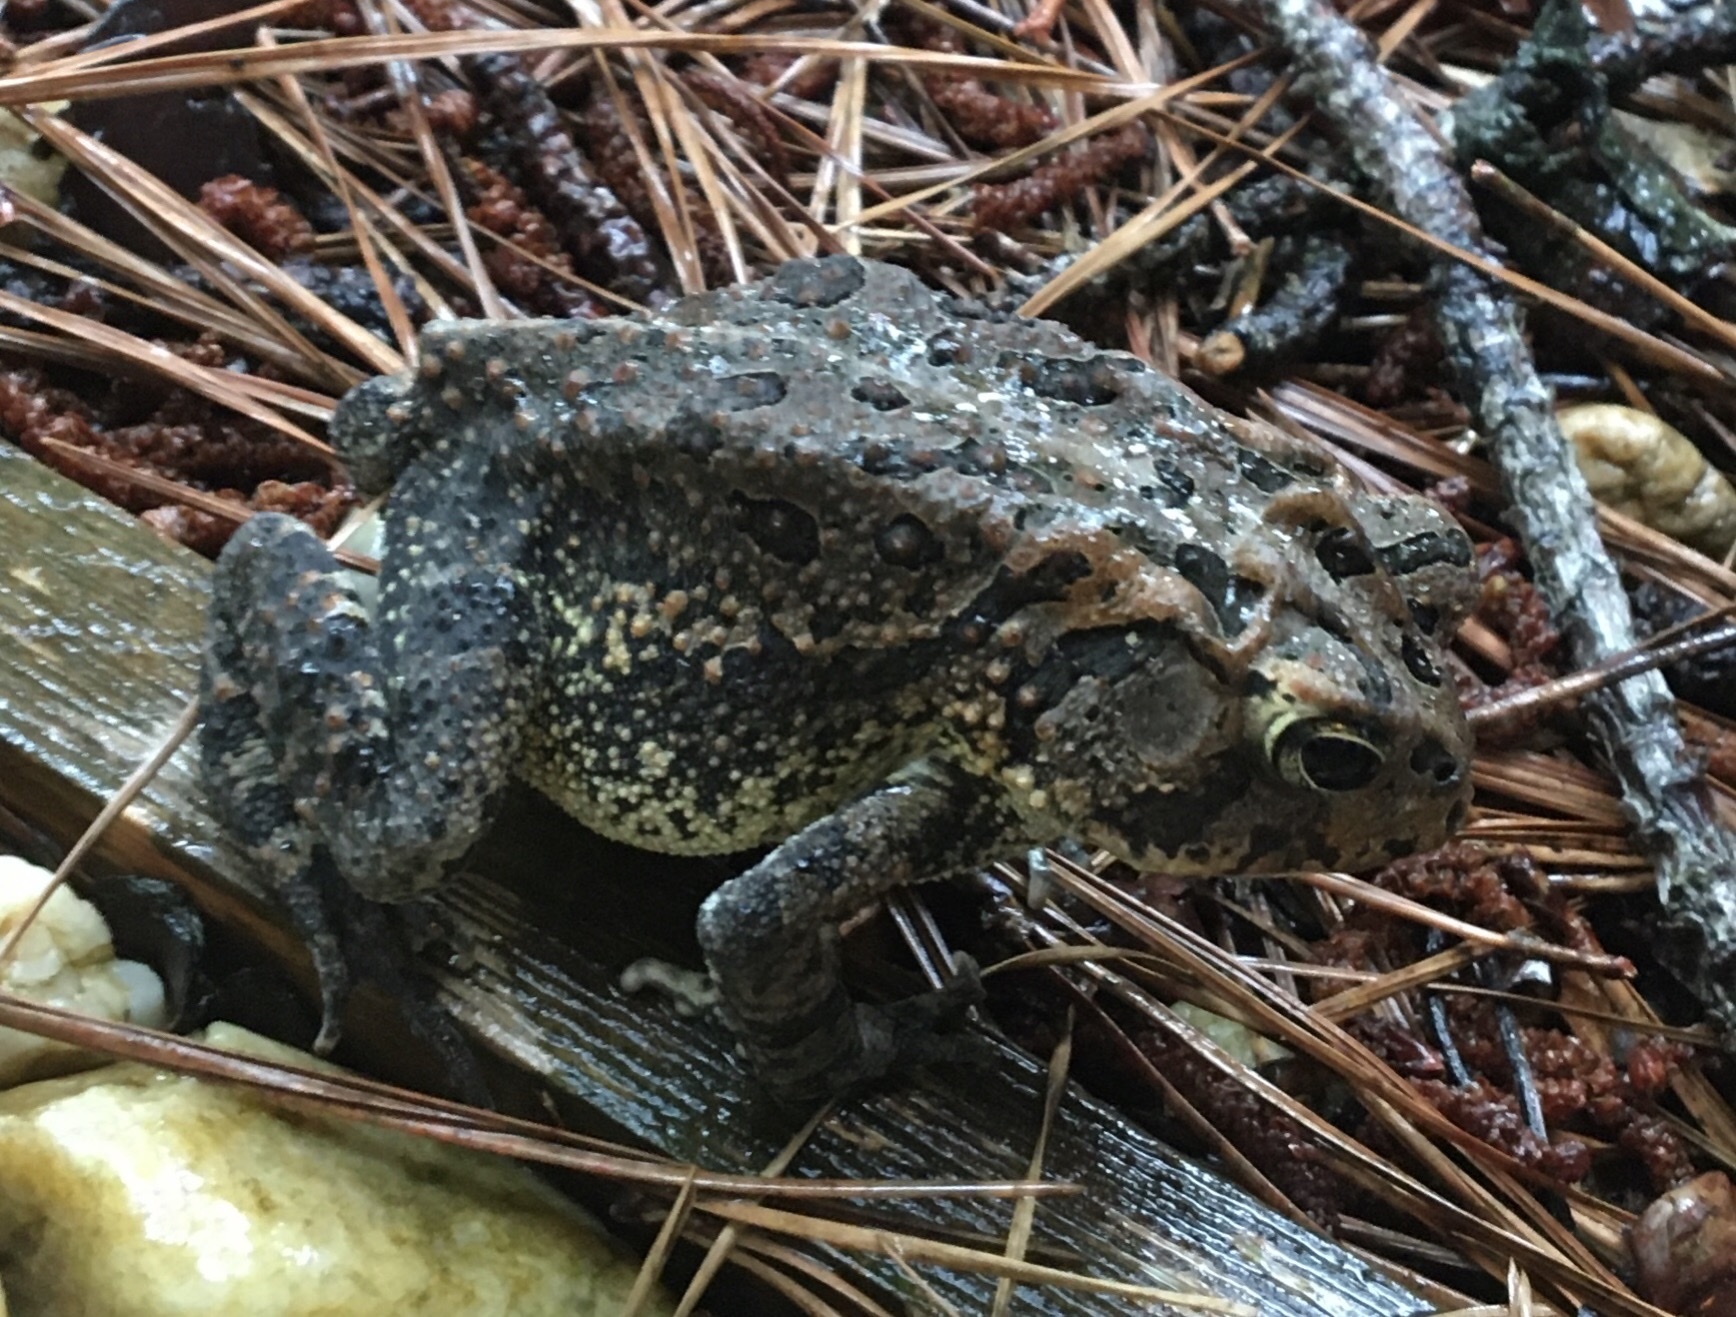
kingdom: Animalia
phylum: Chordata
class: Amphibia
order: Anura
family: Bufonidae
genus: Anaxyrus
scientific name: Anaxyrus terrestris
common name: Southern toad
